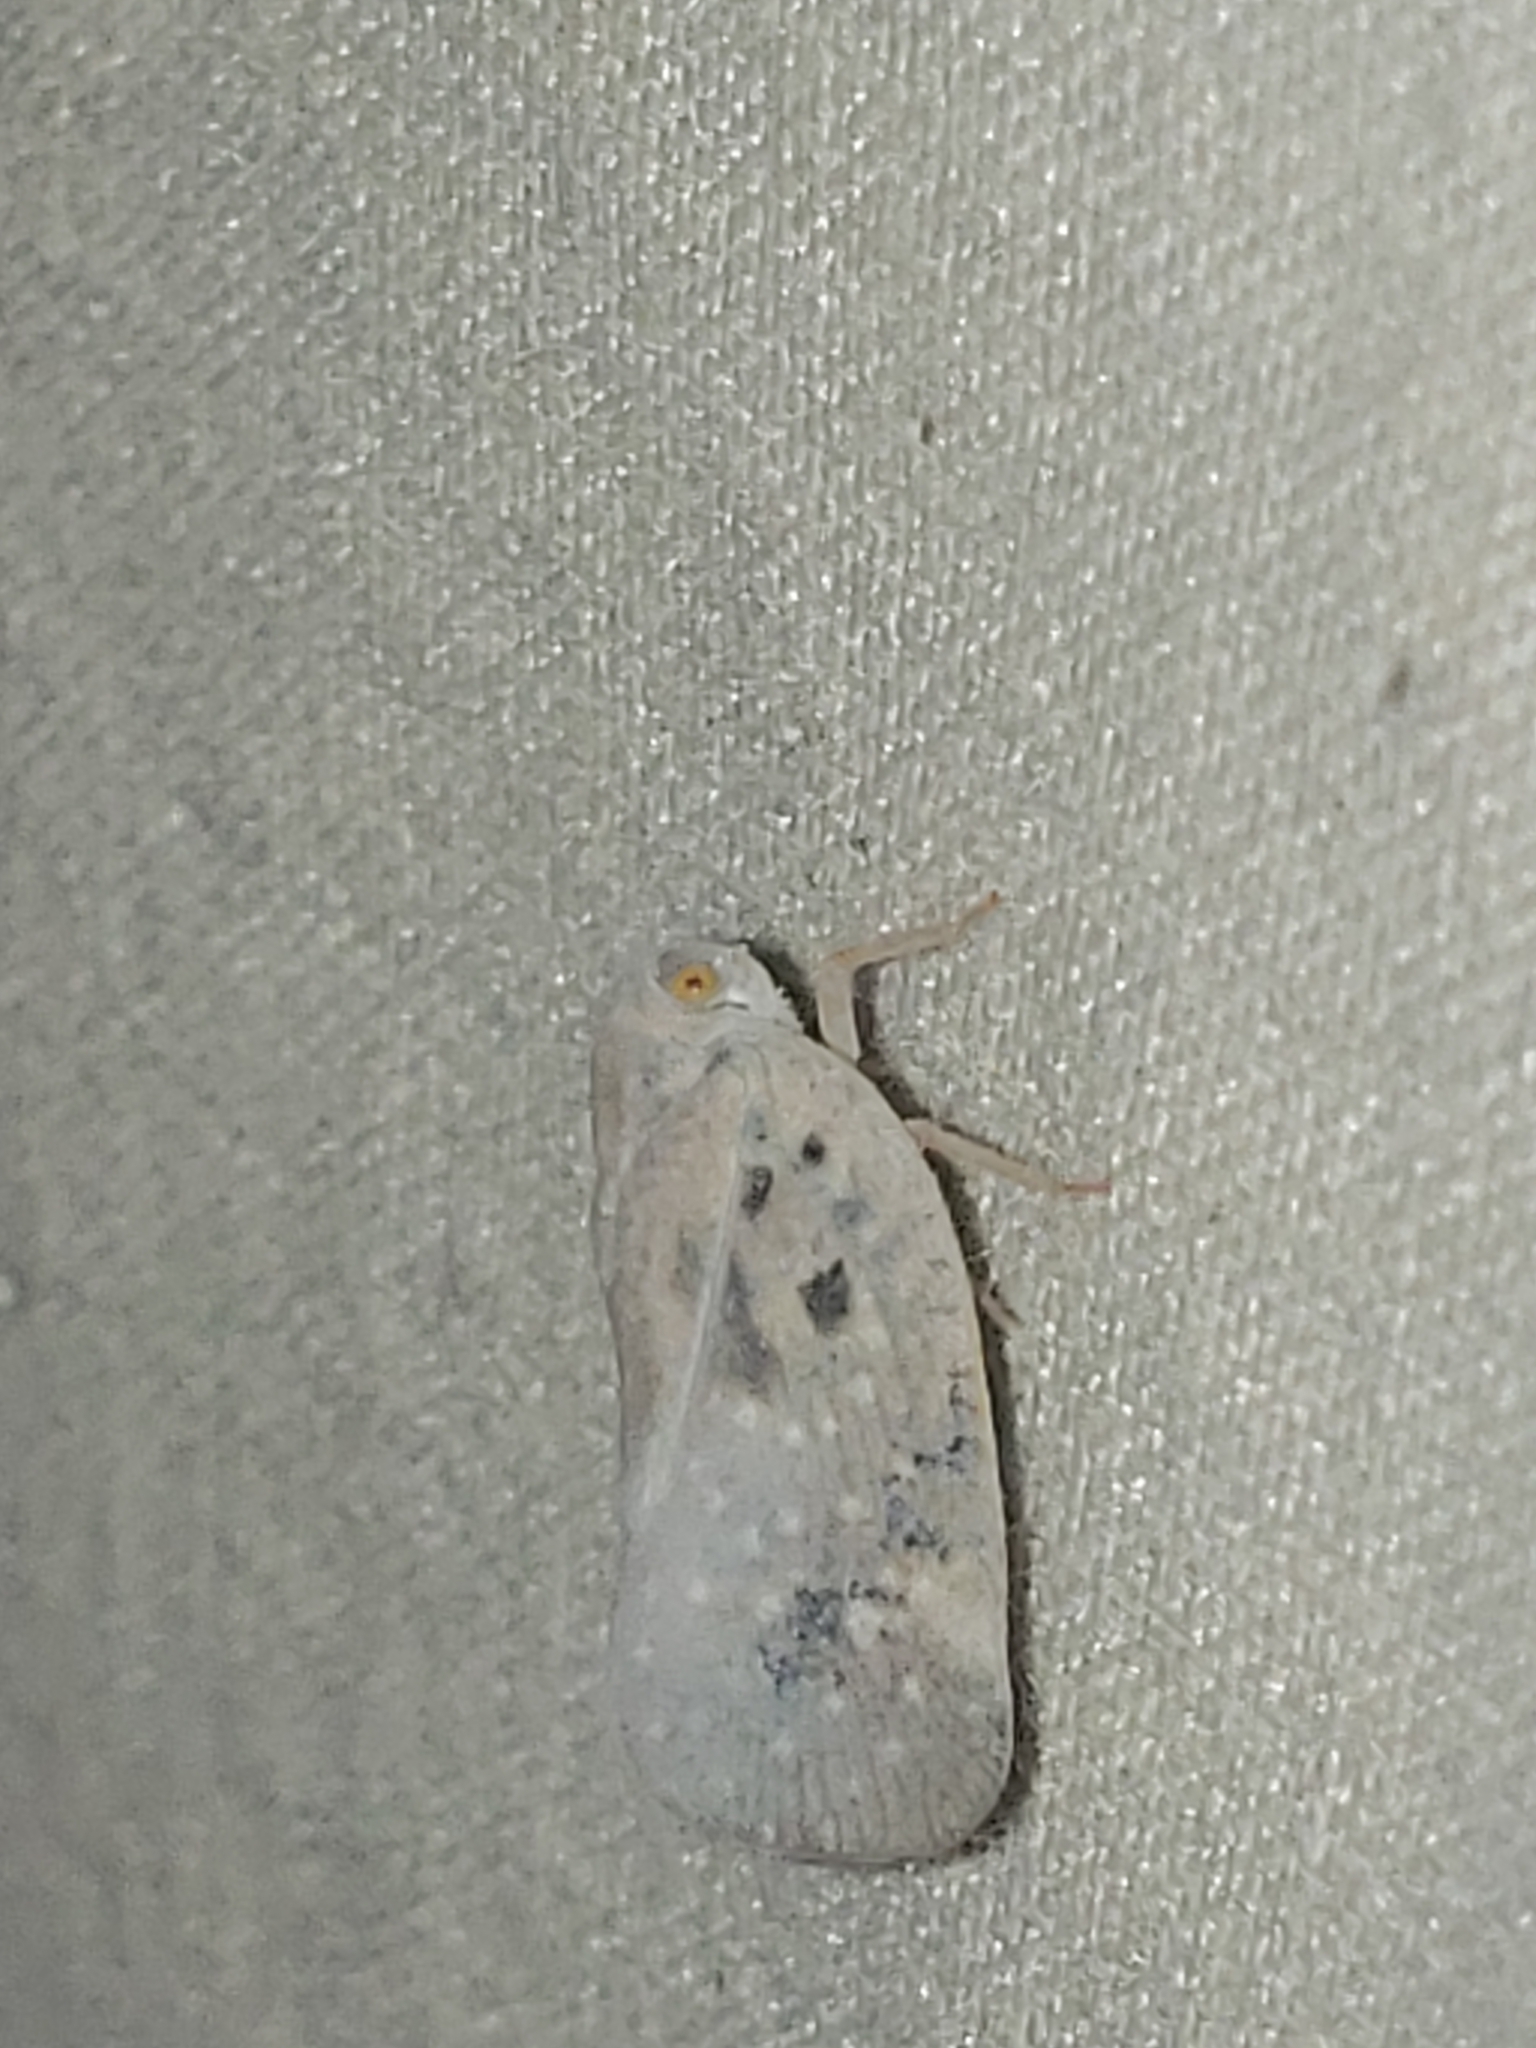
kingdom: Animalia
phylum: Arthropoda
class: Insecta
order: Hemiptera
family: Flatidae
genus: Metcalfa
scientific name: Metcalfa pruinosa
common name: Citrus flatid planthopper
